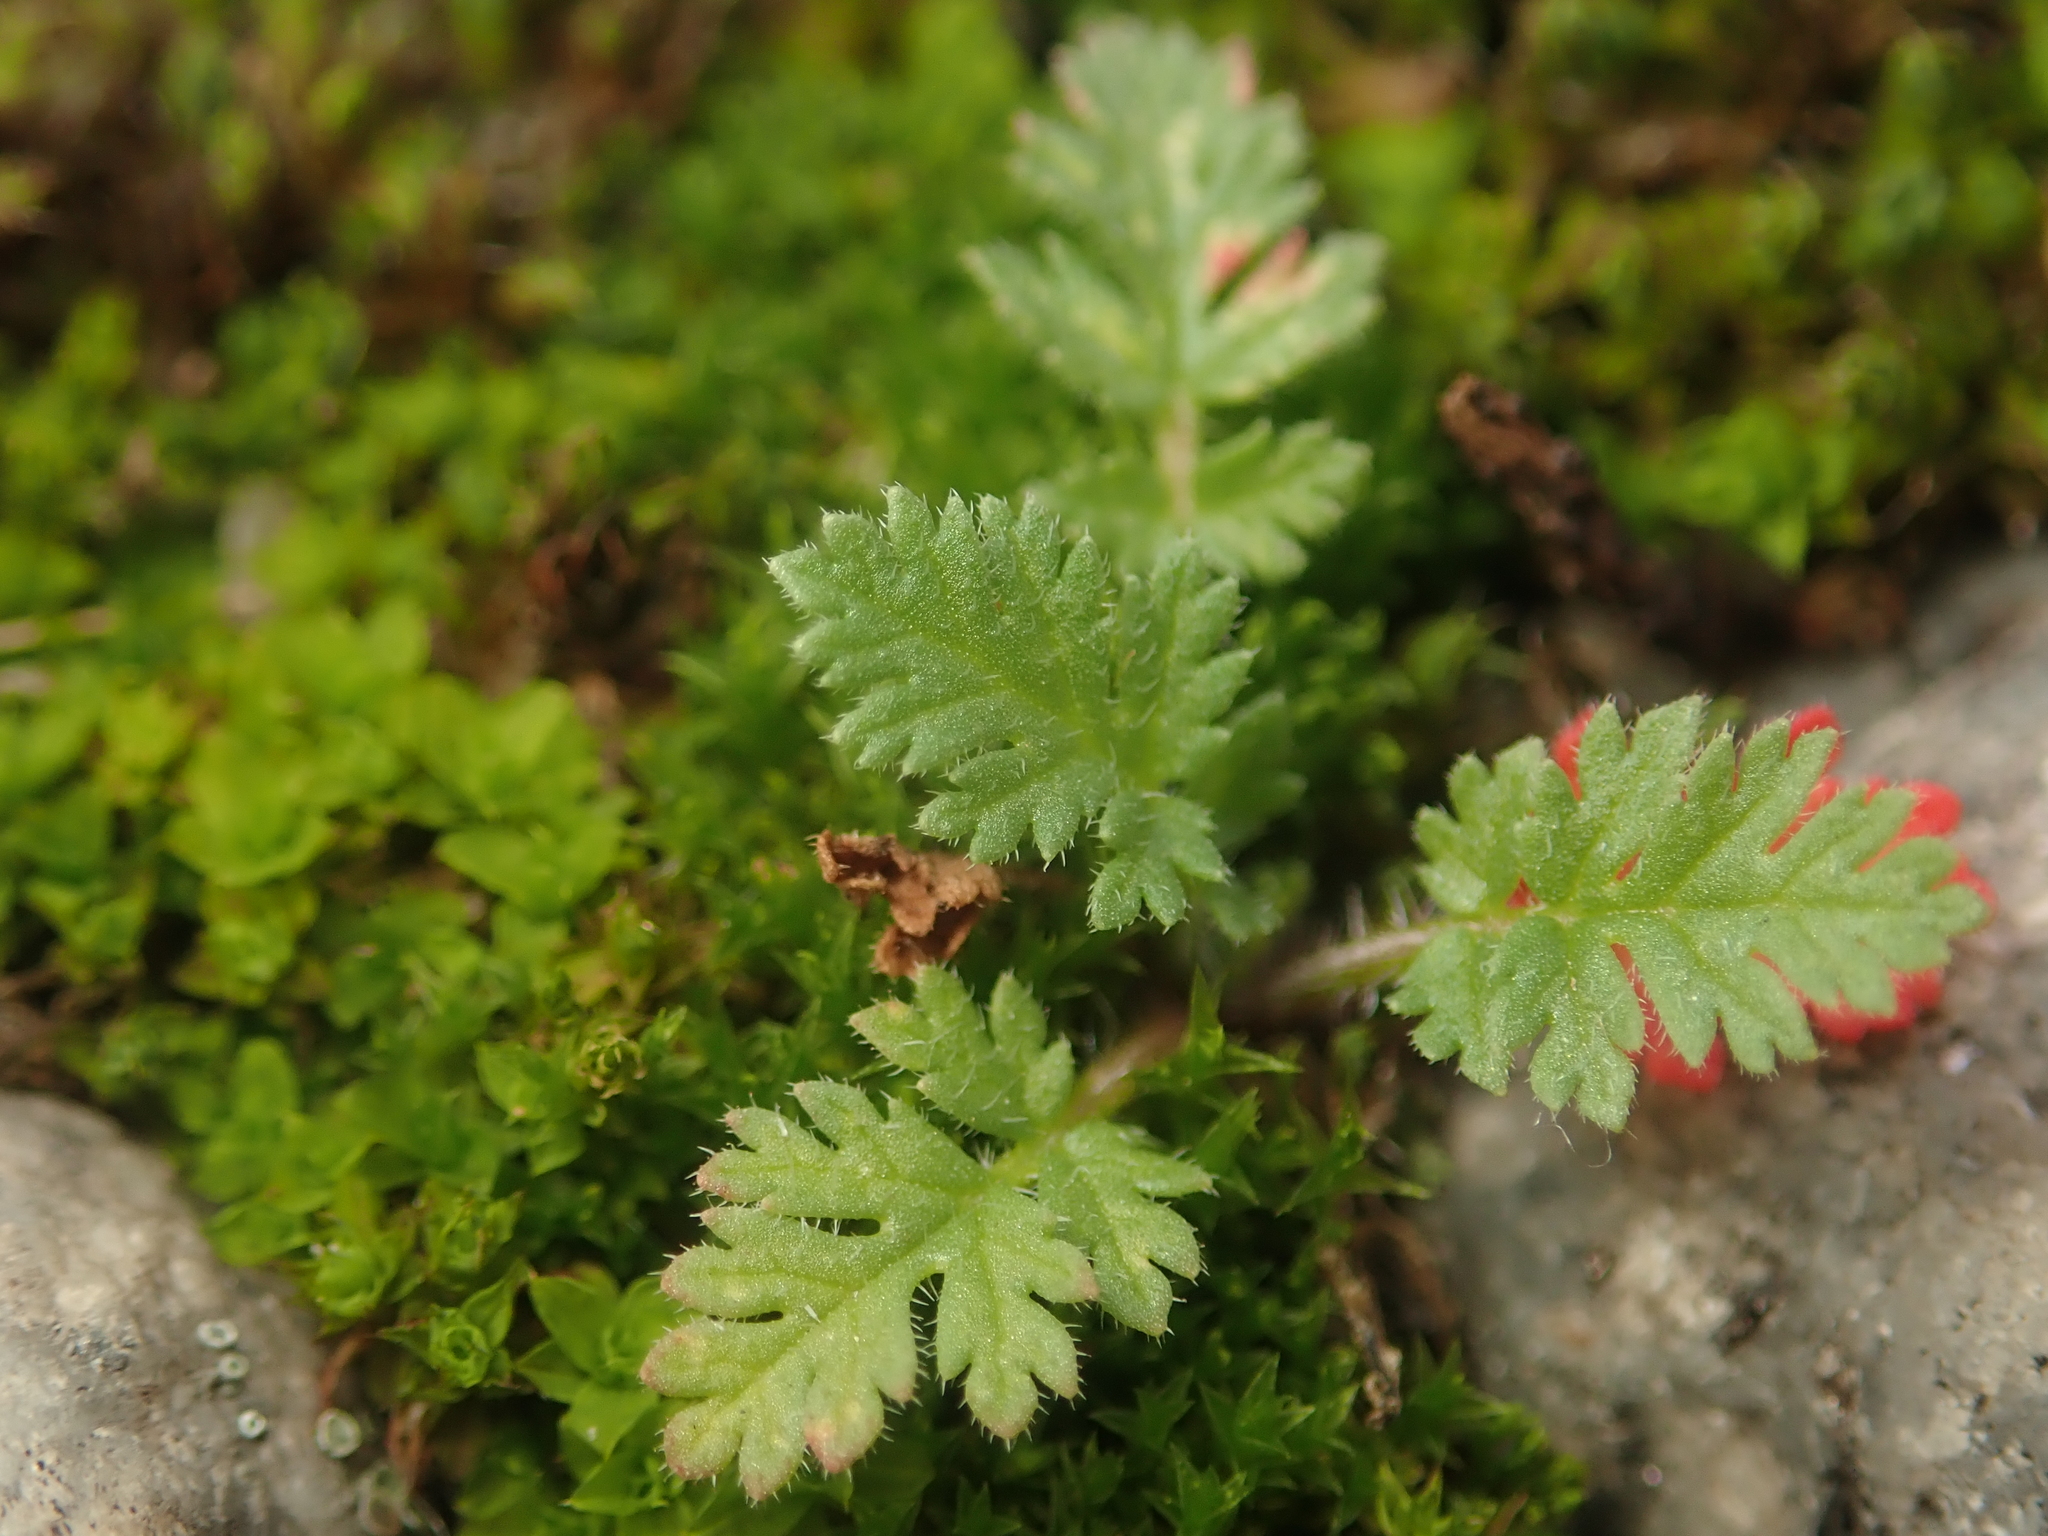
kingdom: Plantae
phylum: Tracheophyta
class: Magnoliopsida
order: Geraniales
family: Geraniaceae
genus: Erodium
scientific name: Erodium cicutarium
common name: Common stork's-bill
